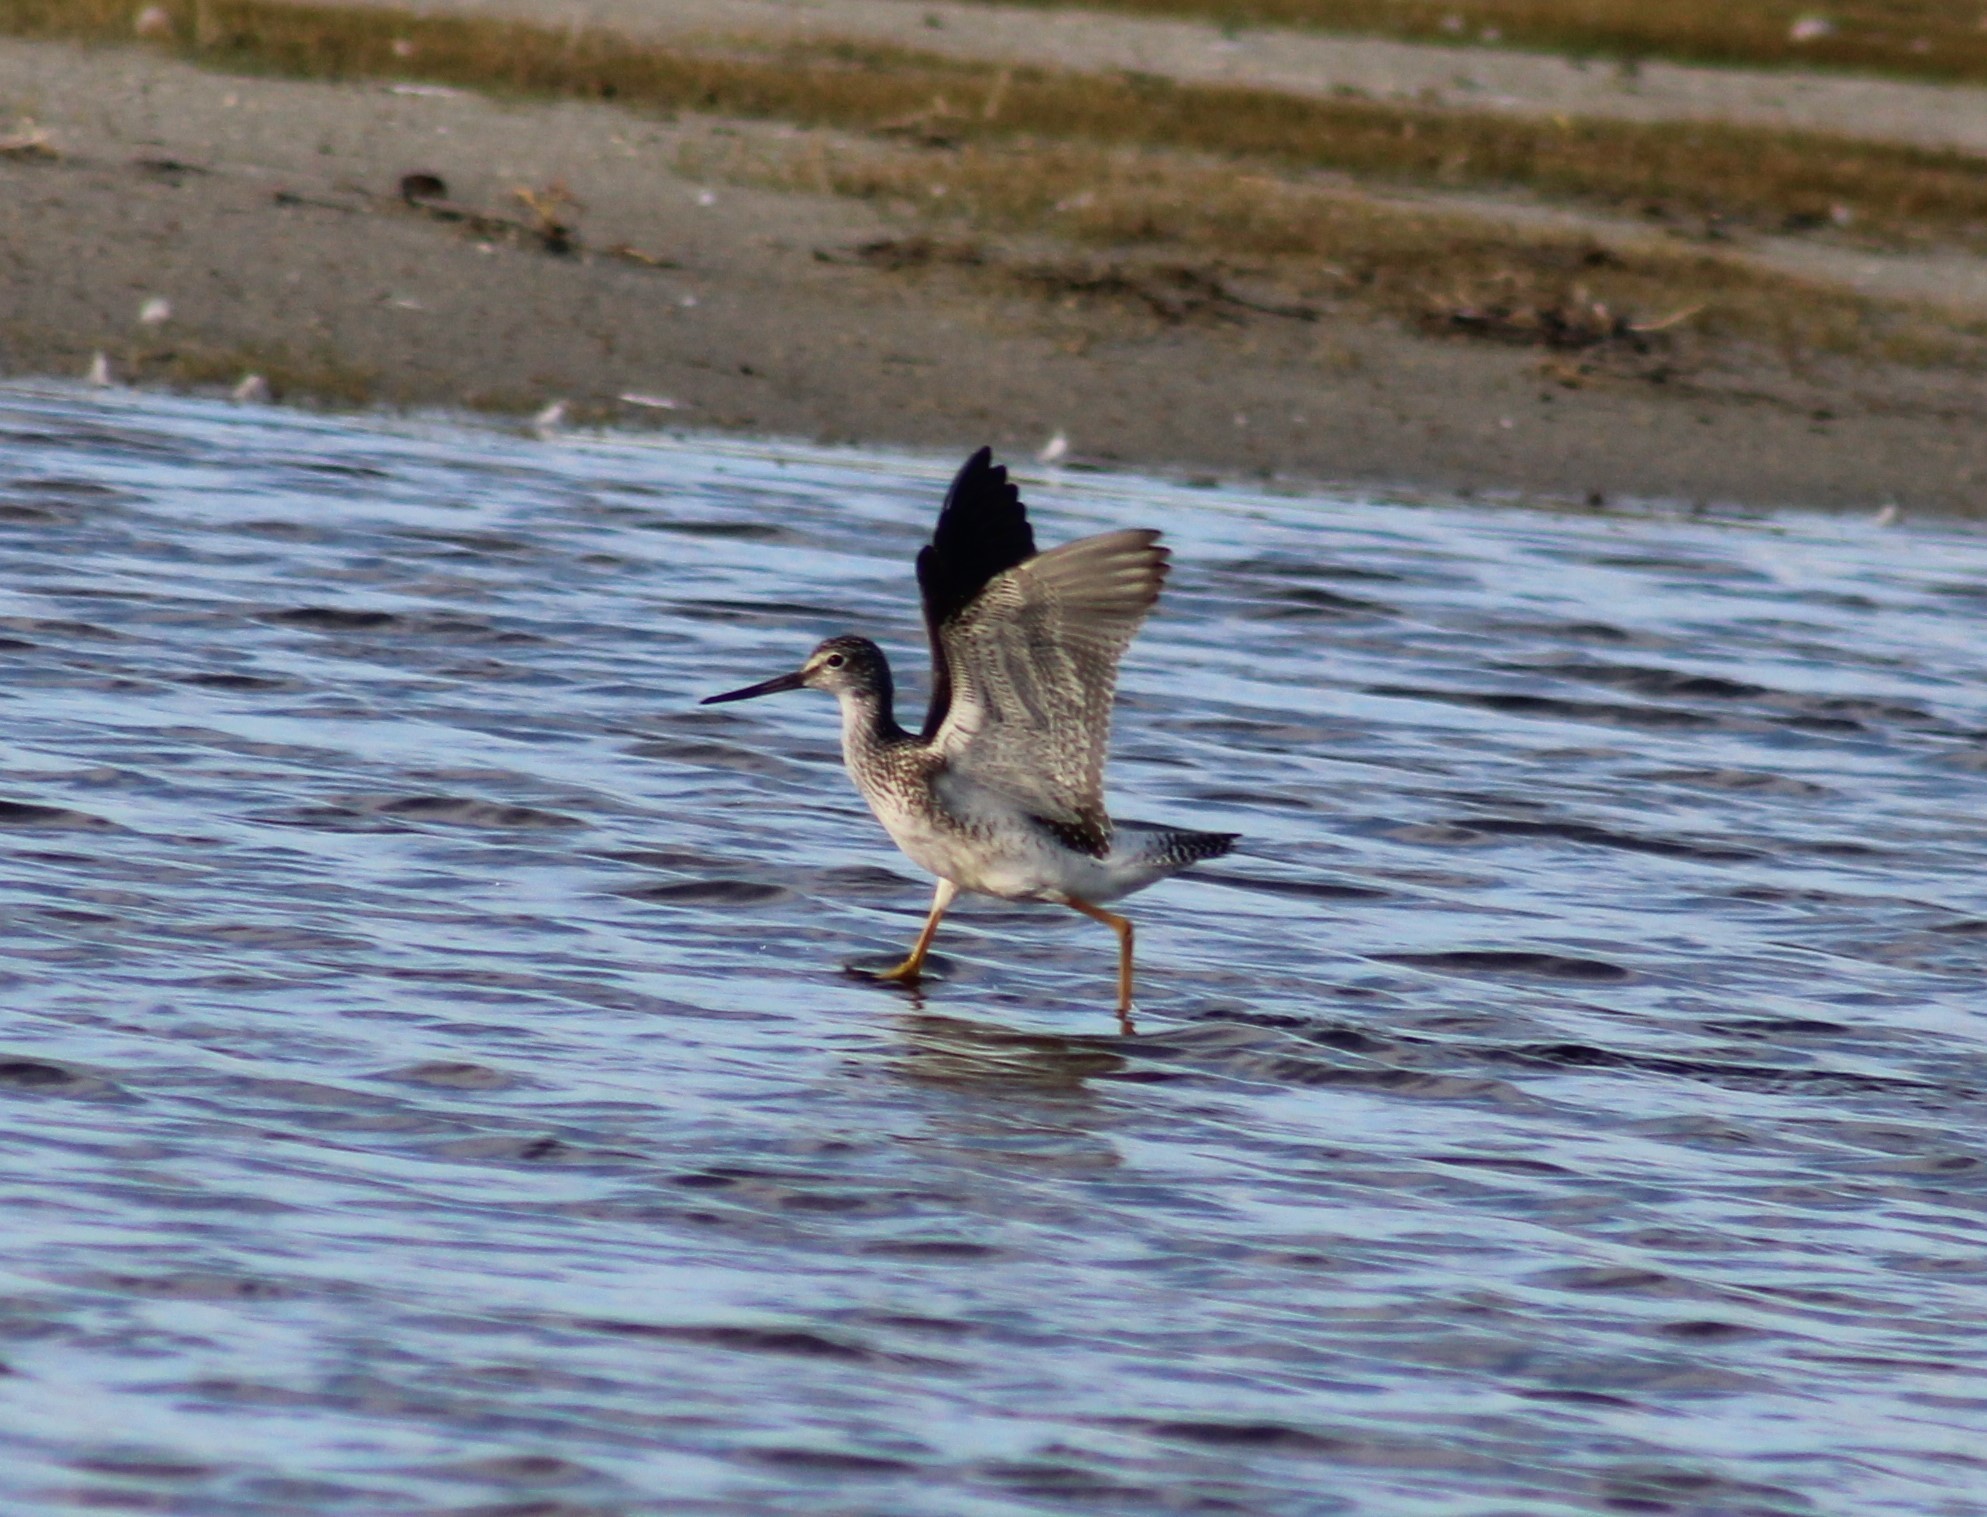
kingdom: Animalia
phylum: Chordata
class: Aves
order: Charadriiformes
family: Scolopacidae
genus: Tringa
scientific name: Tringa melanoleuca
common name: Greater yellowlegs
